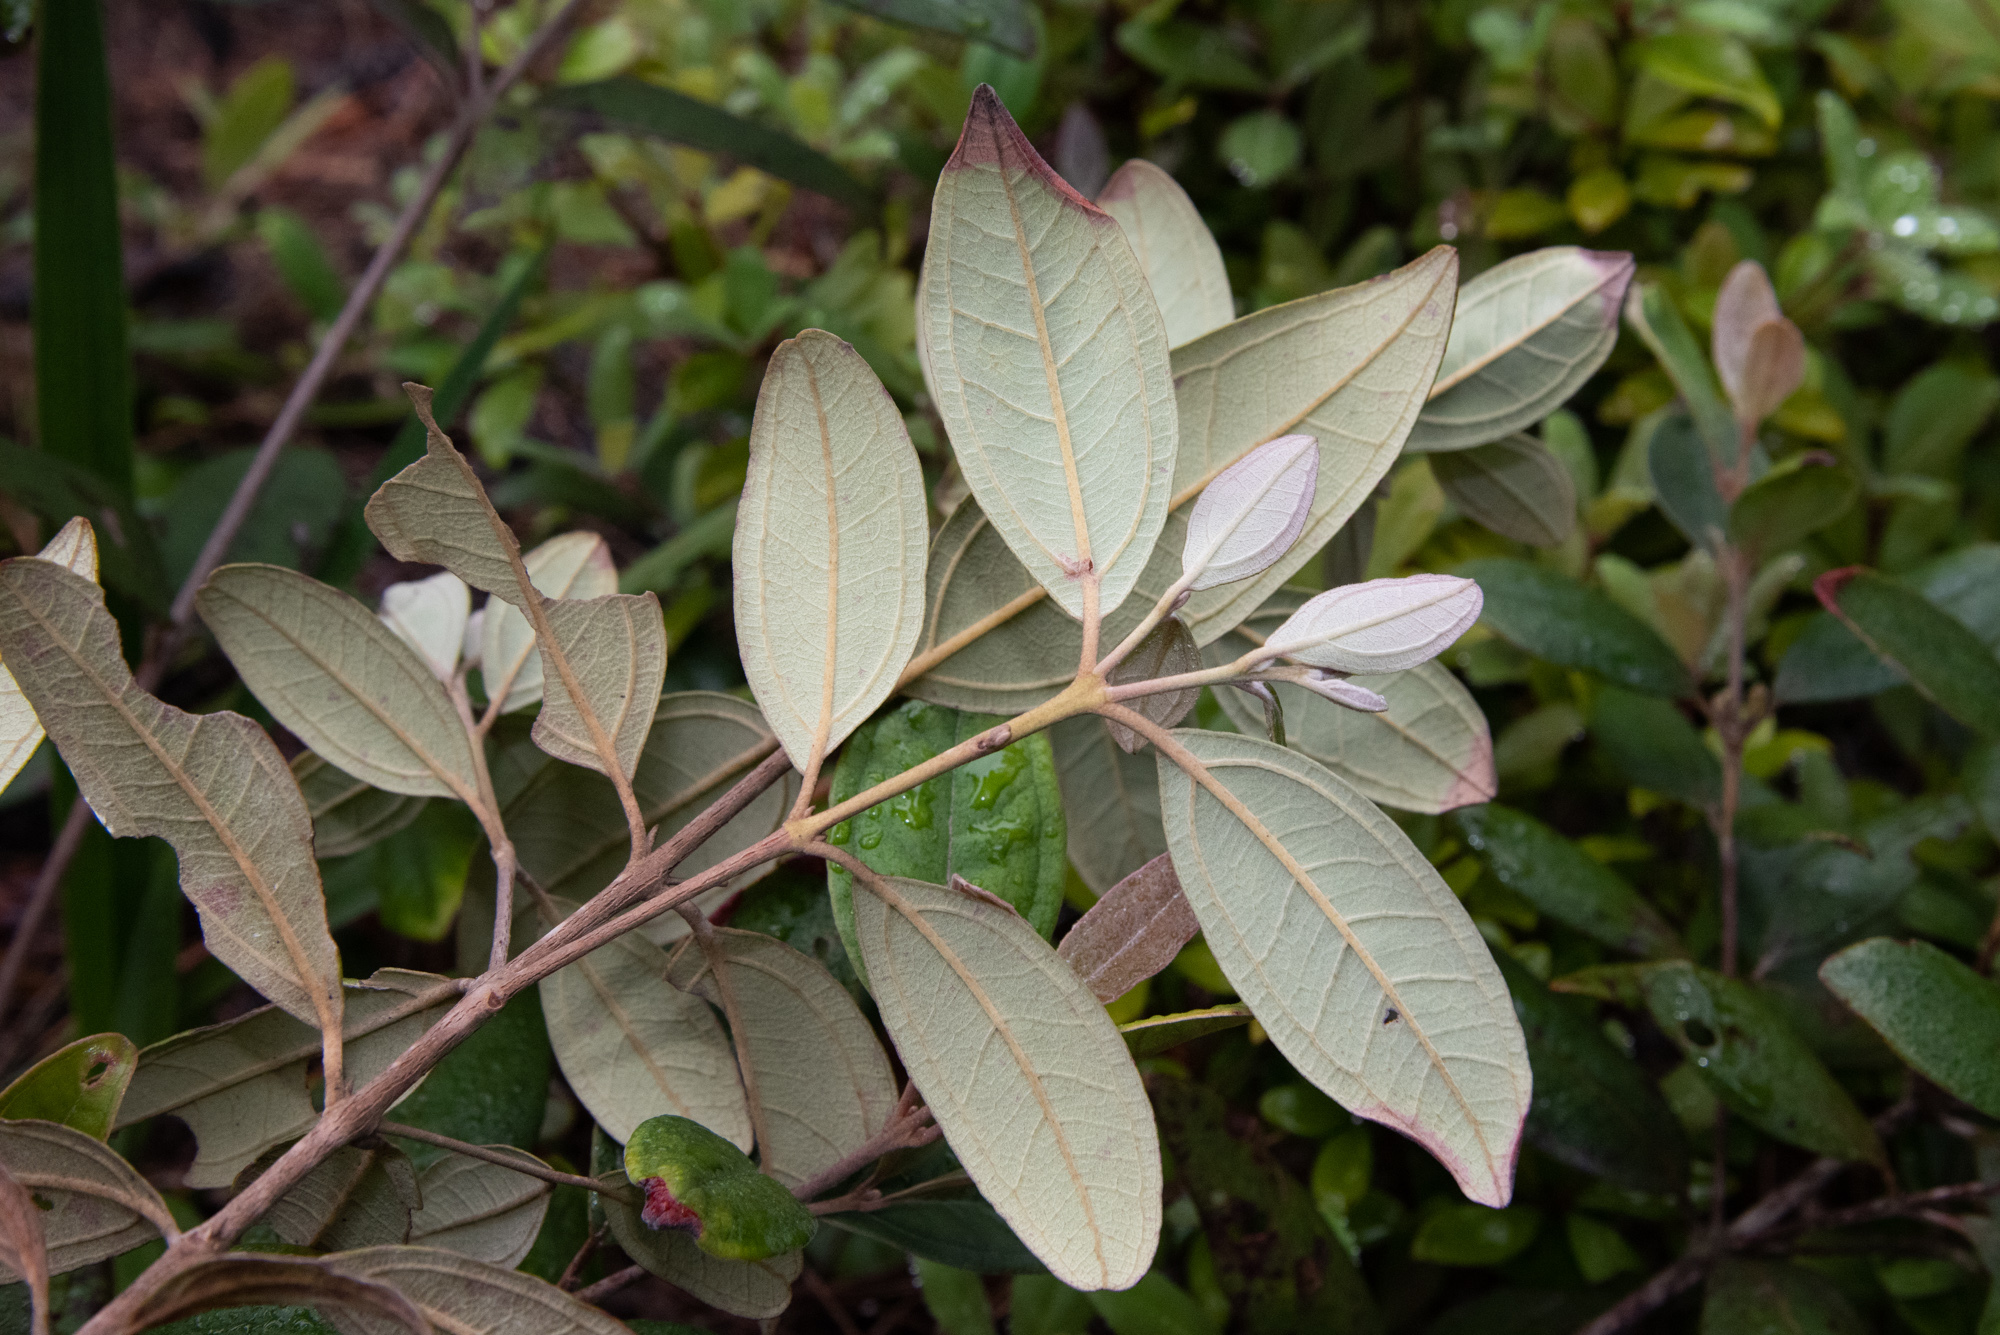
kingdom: Plantae
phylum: Tracheophyta
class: Magnoliopsida
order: Myrtales
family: Myrtaceae
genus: Rhodomyrtus
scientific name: Rhodomyrtus tomentosa
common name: Rose myrtle
